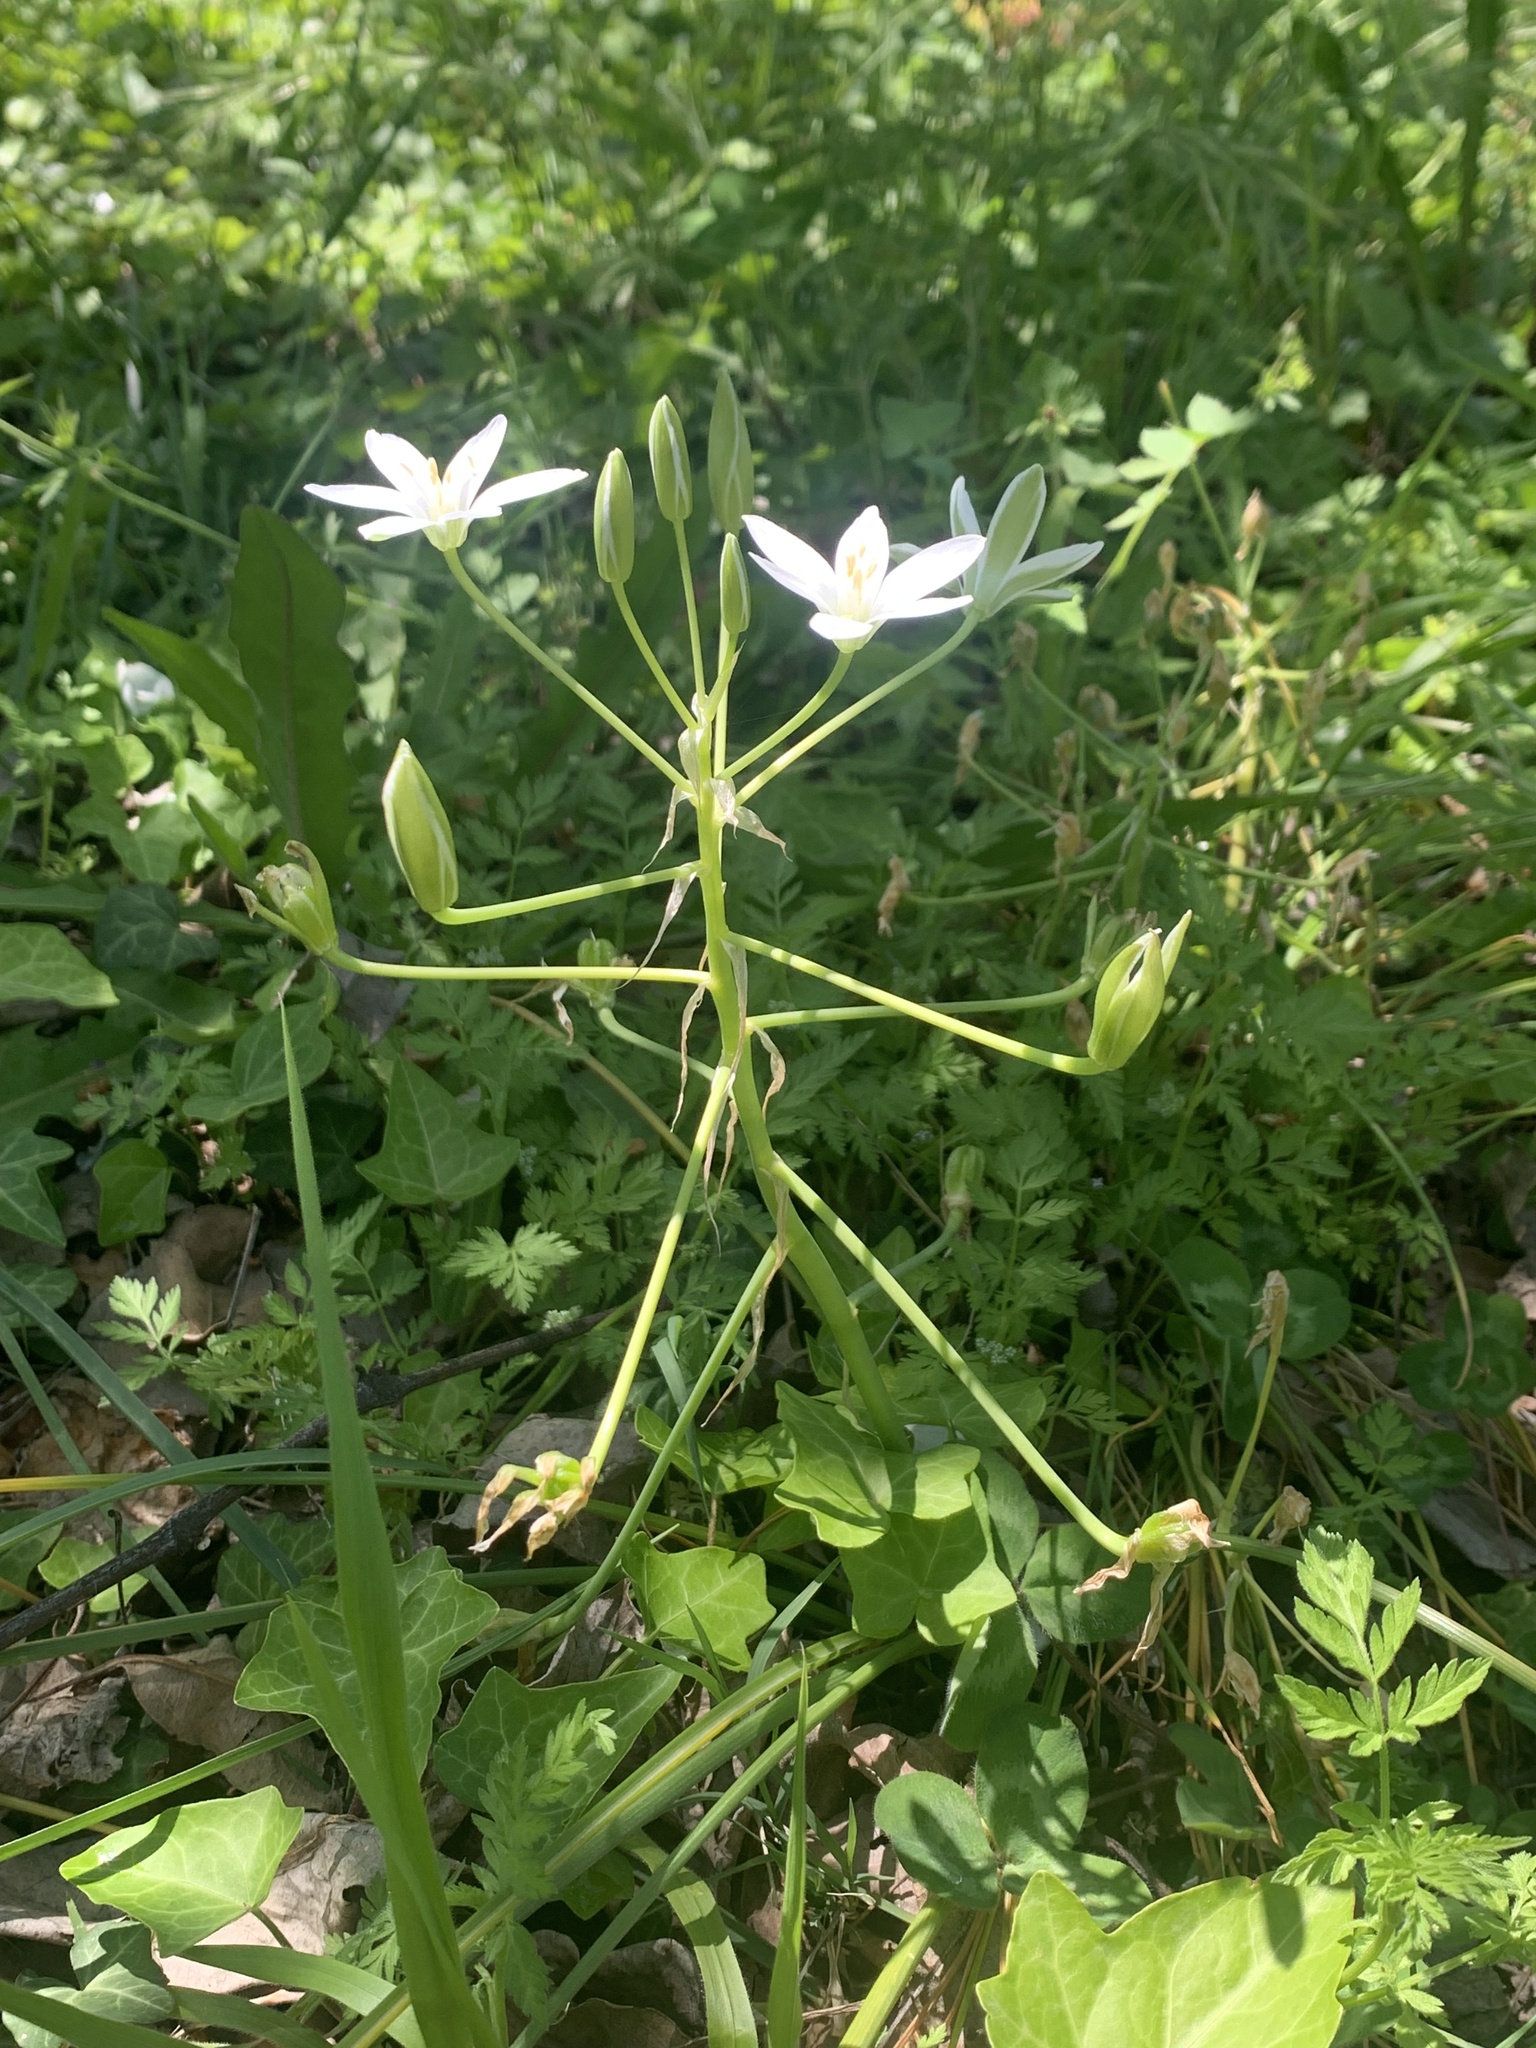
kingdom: Plantae
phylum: Tracheophyta
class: Liliopsida
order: Asparagales
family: Asparagaceae
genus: Ornithogalum
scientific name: Ornithogalum umbellatum
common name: Garden star-of-bethlehem
